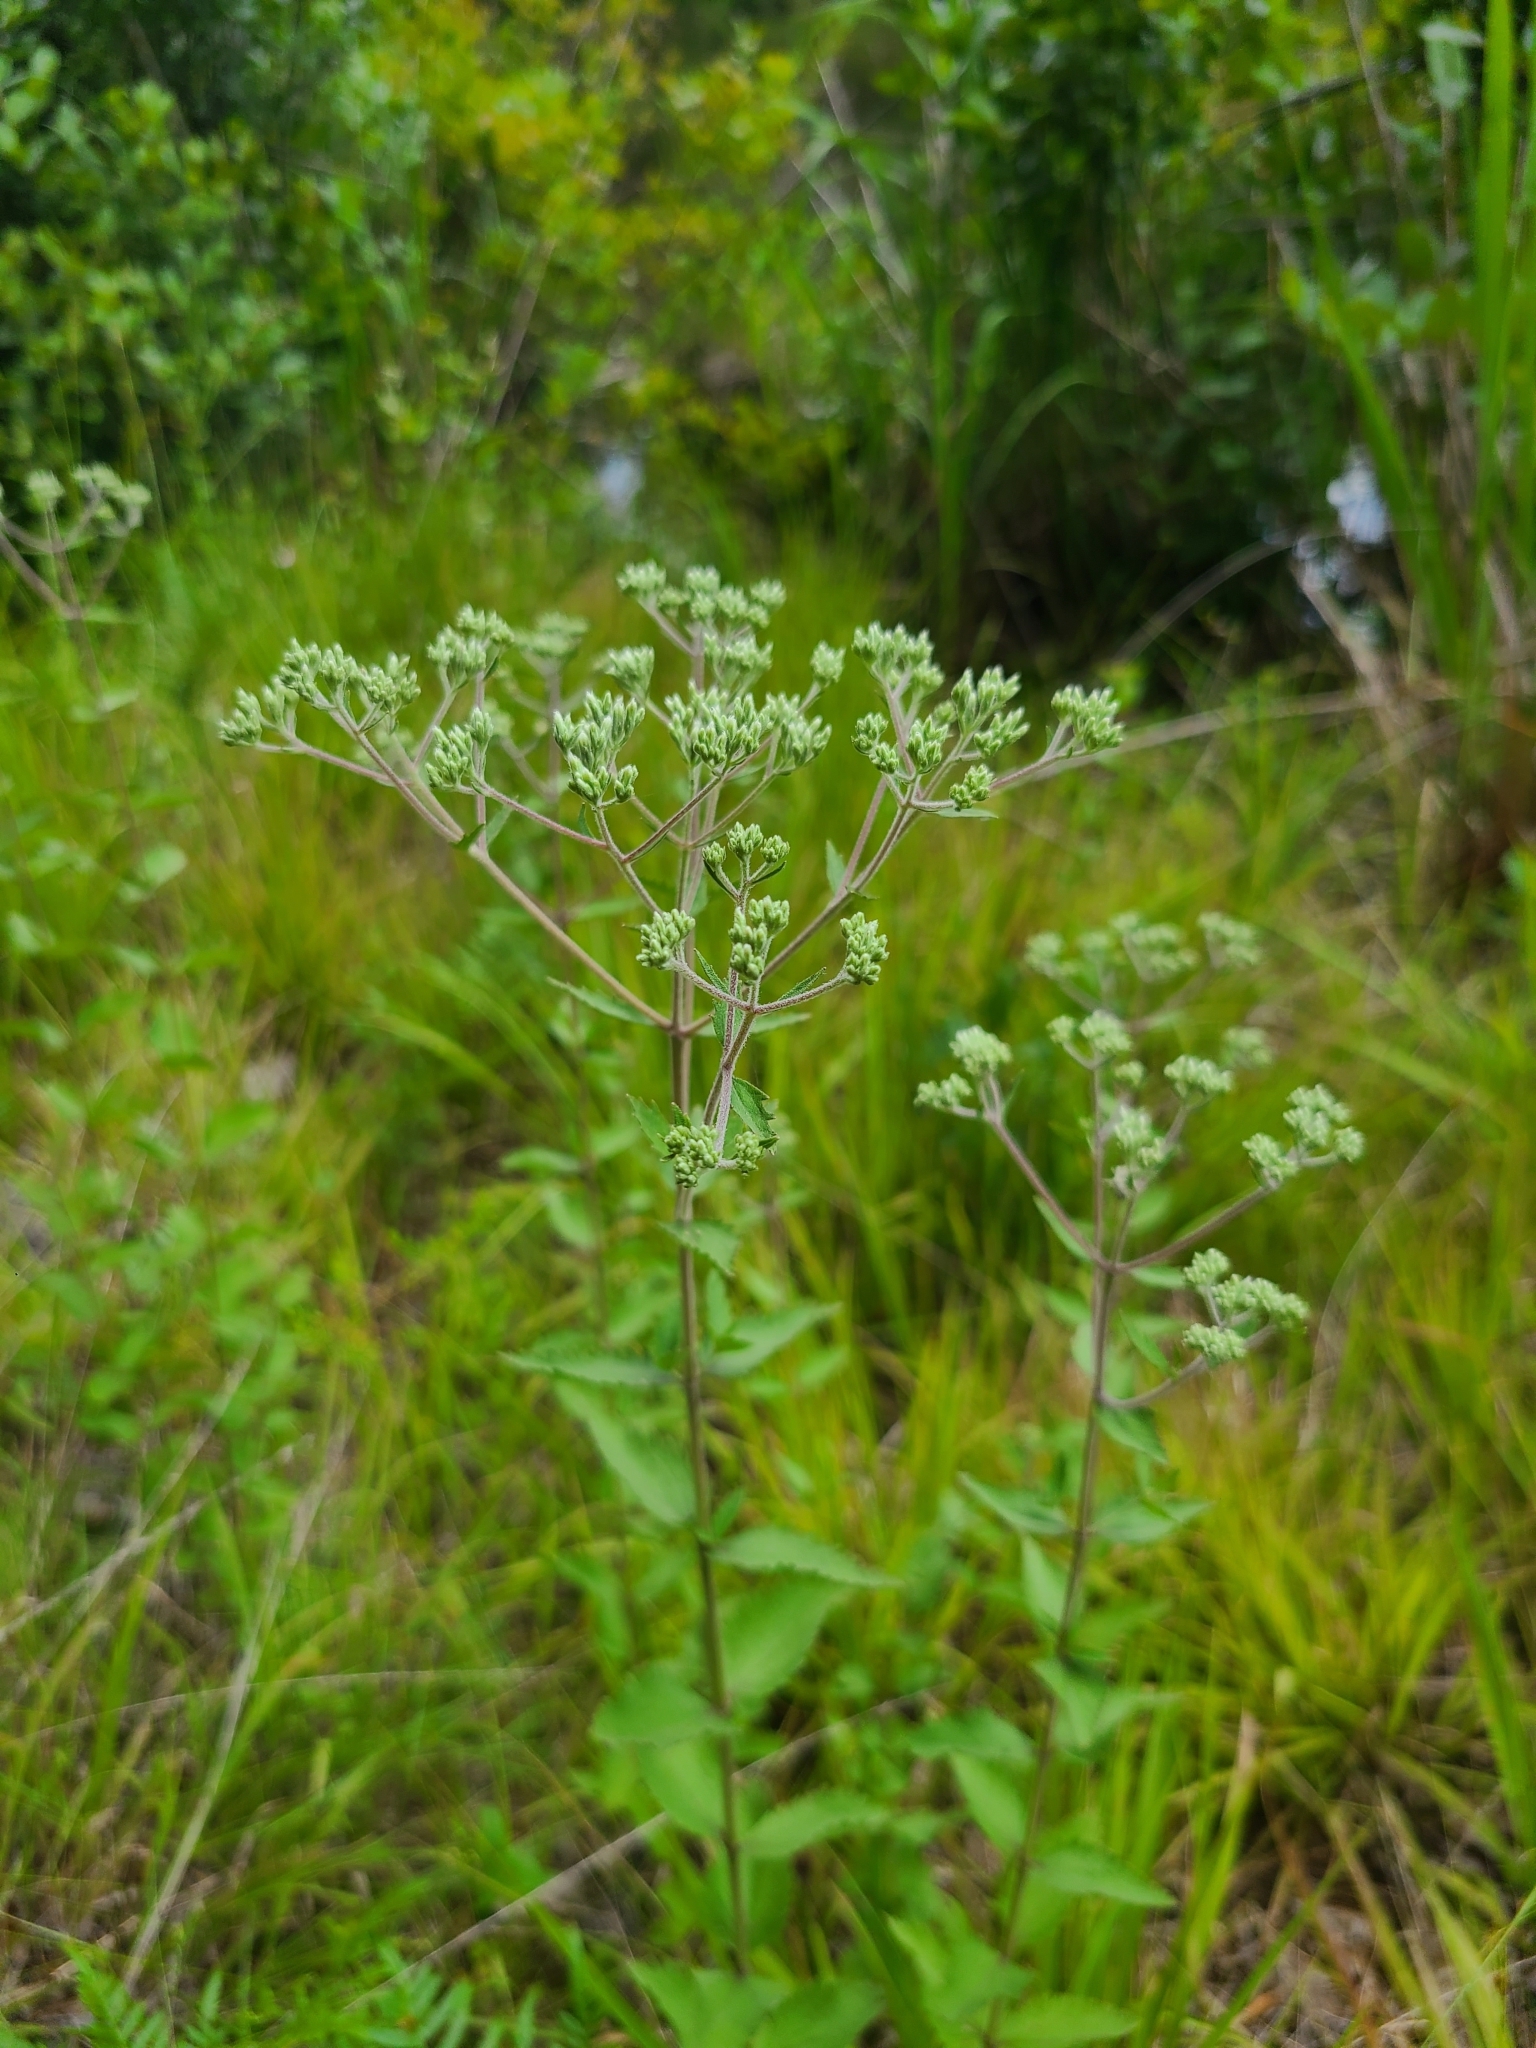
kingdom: Plantae
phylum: Tracheophyta
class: Magnoliopsida
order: Asterales
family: Asteraceae
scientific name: Asteraceae
